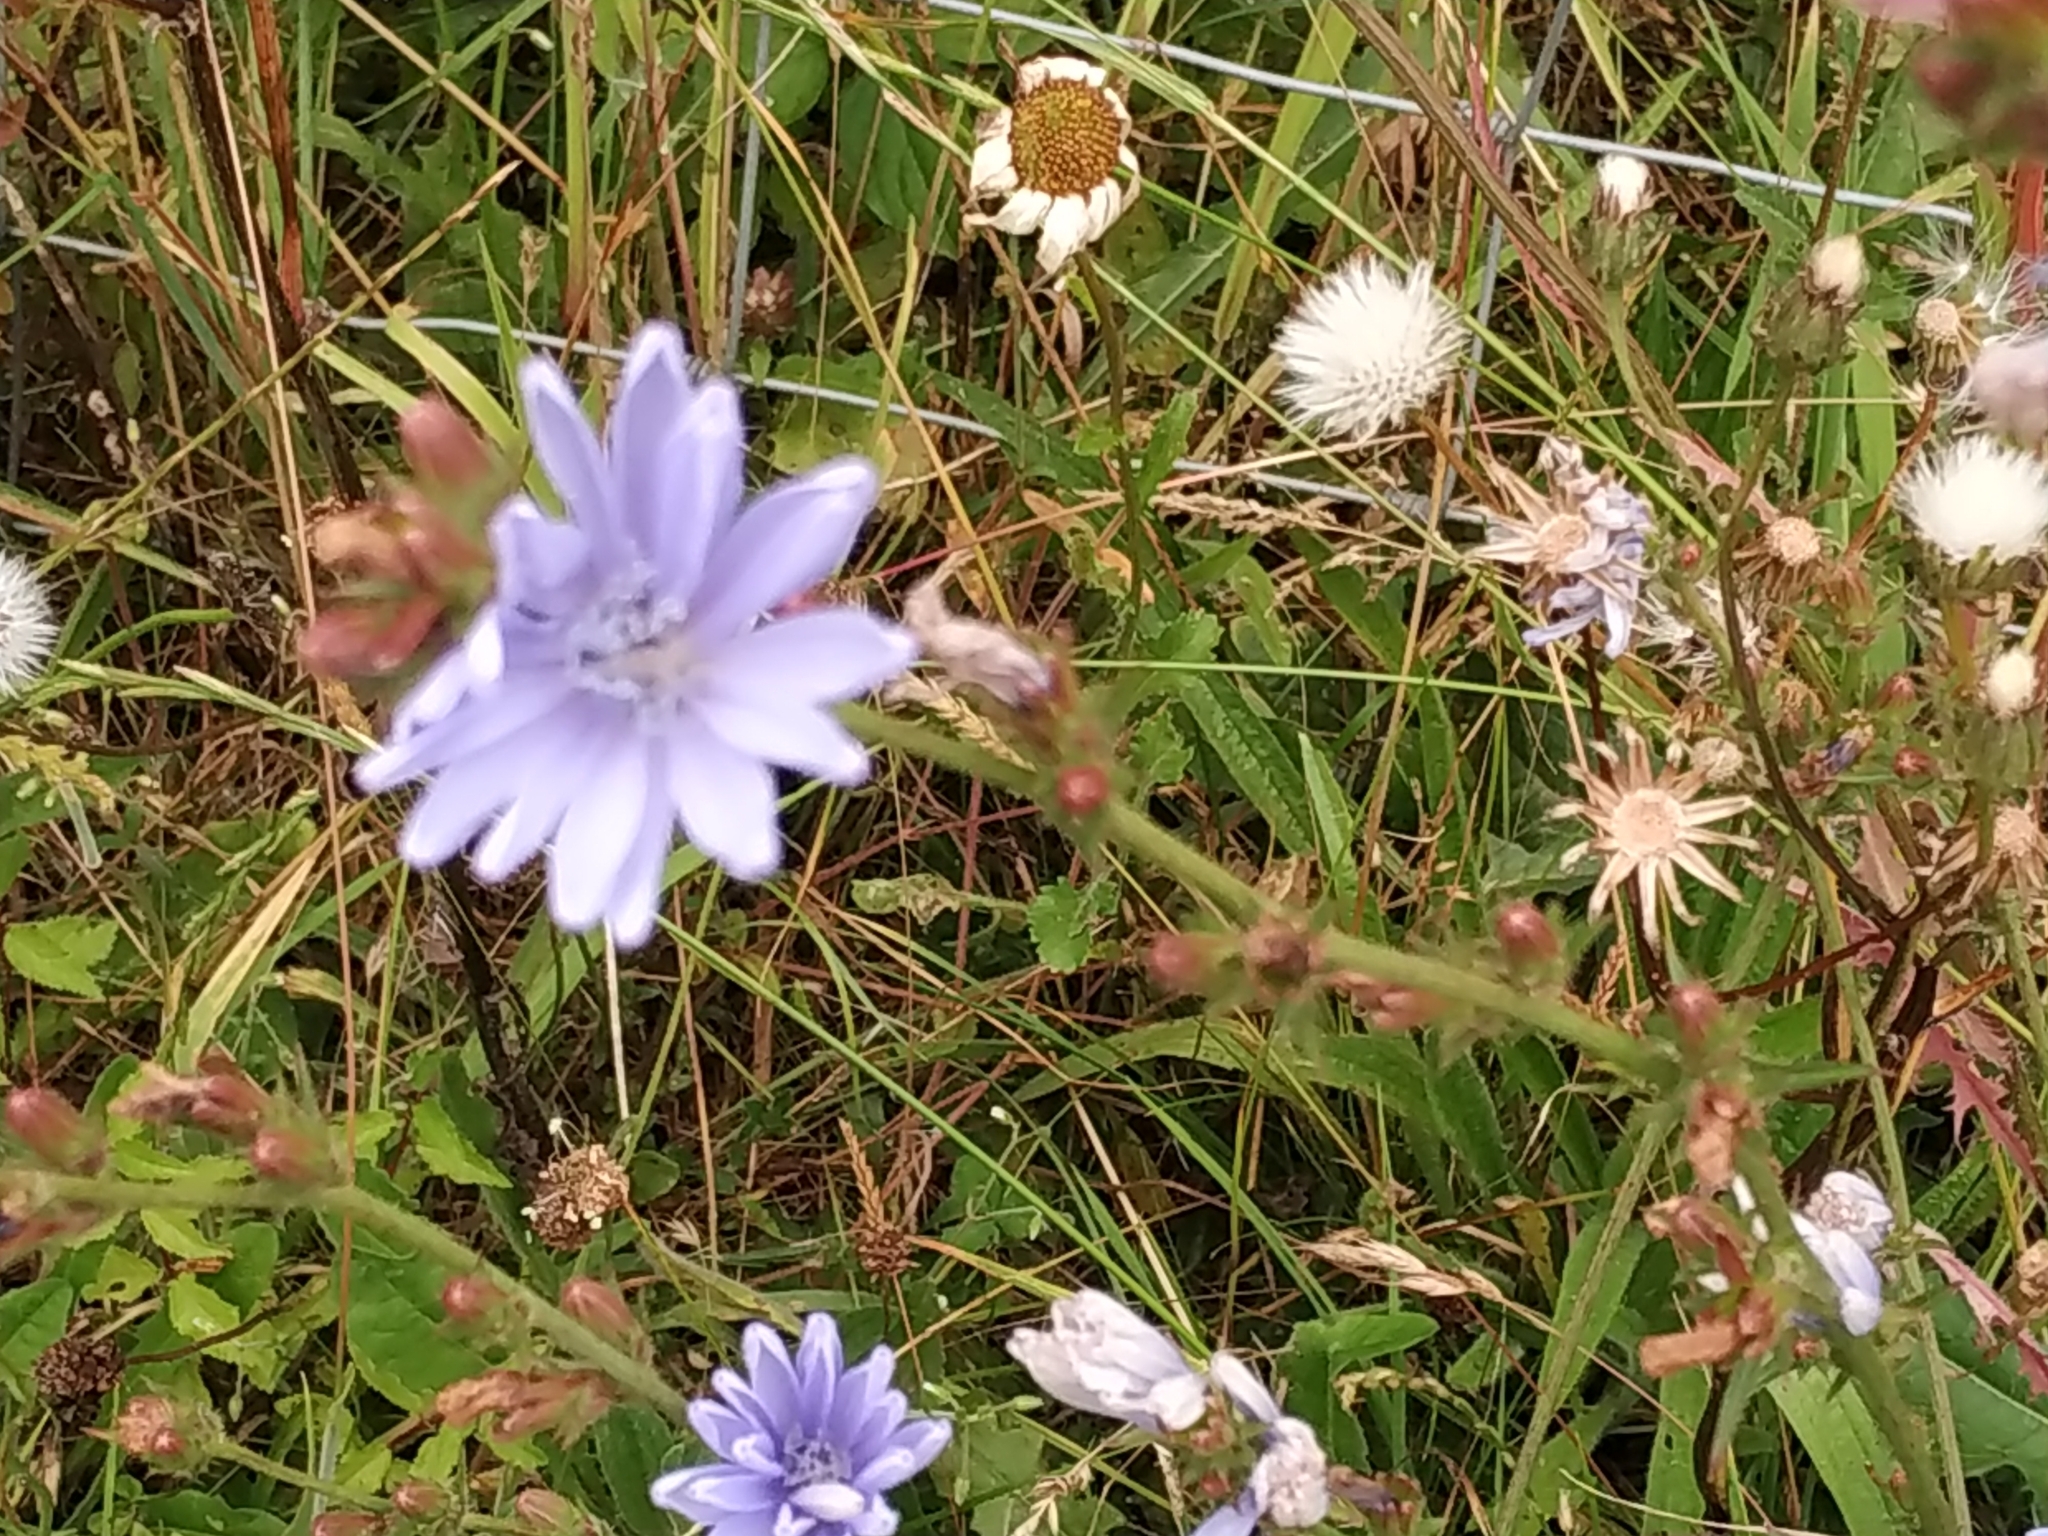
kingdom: Plantae
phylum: Tracheophyta
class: Magnoliopsida
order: Asterales
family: Asteraceae
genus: Cichorium
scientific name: Cichorium intybus
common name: Chicory
